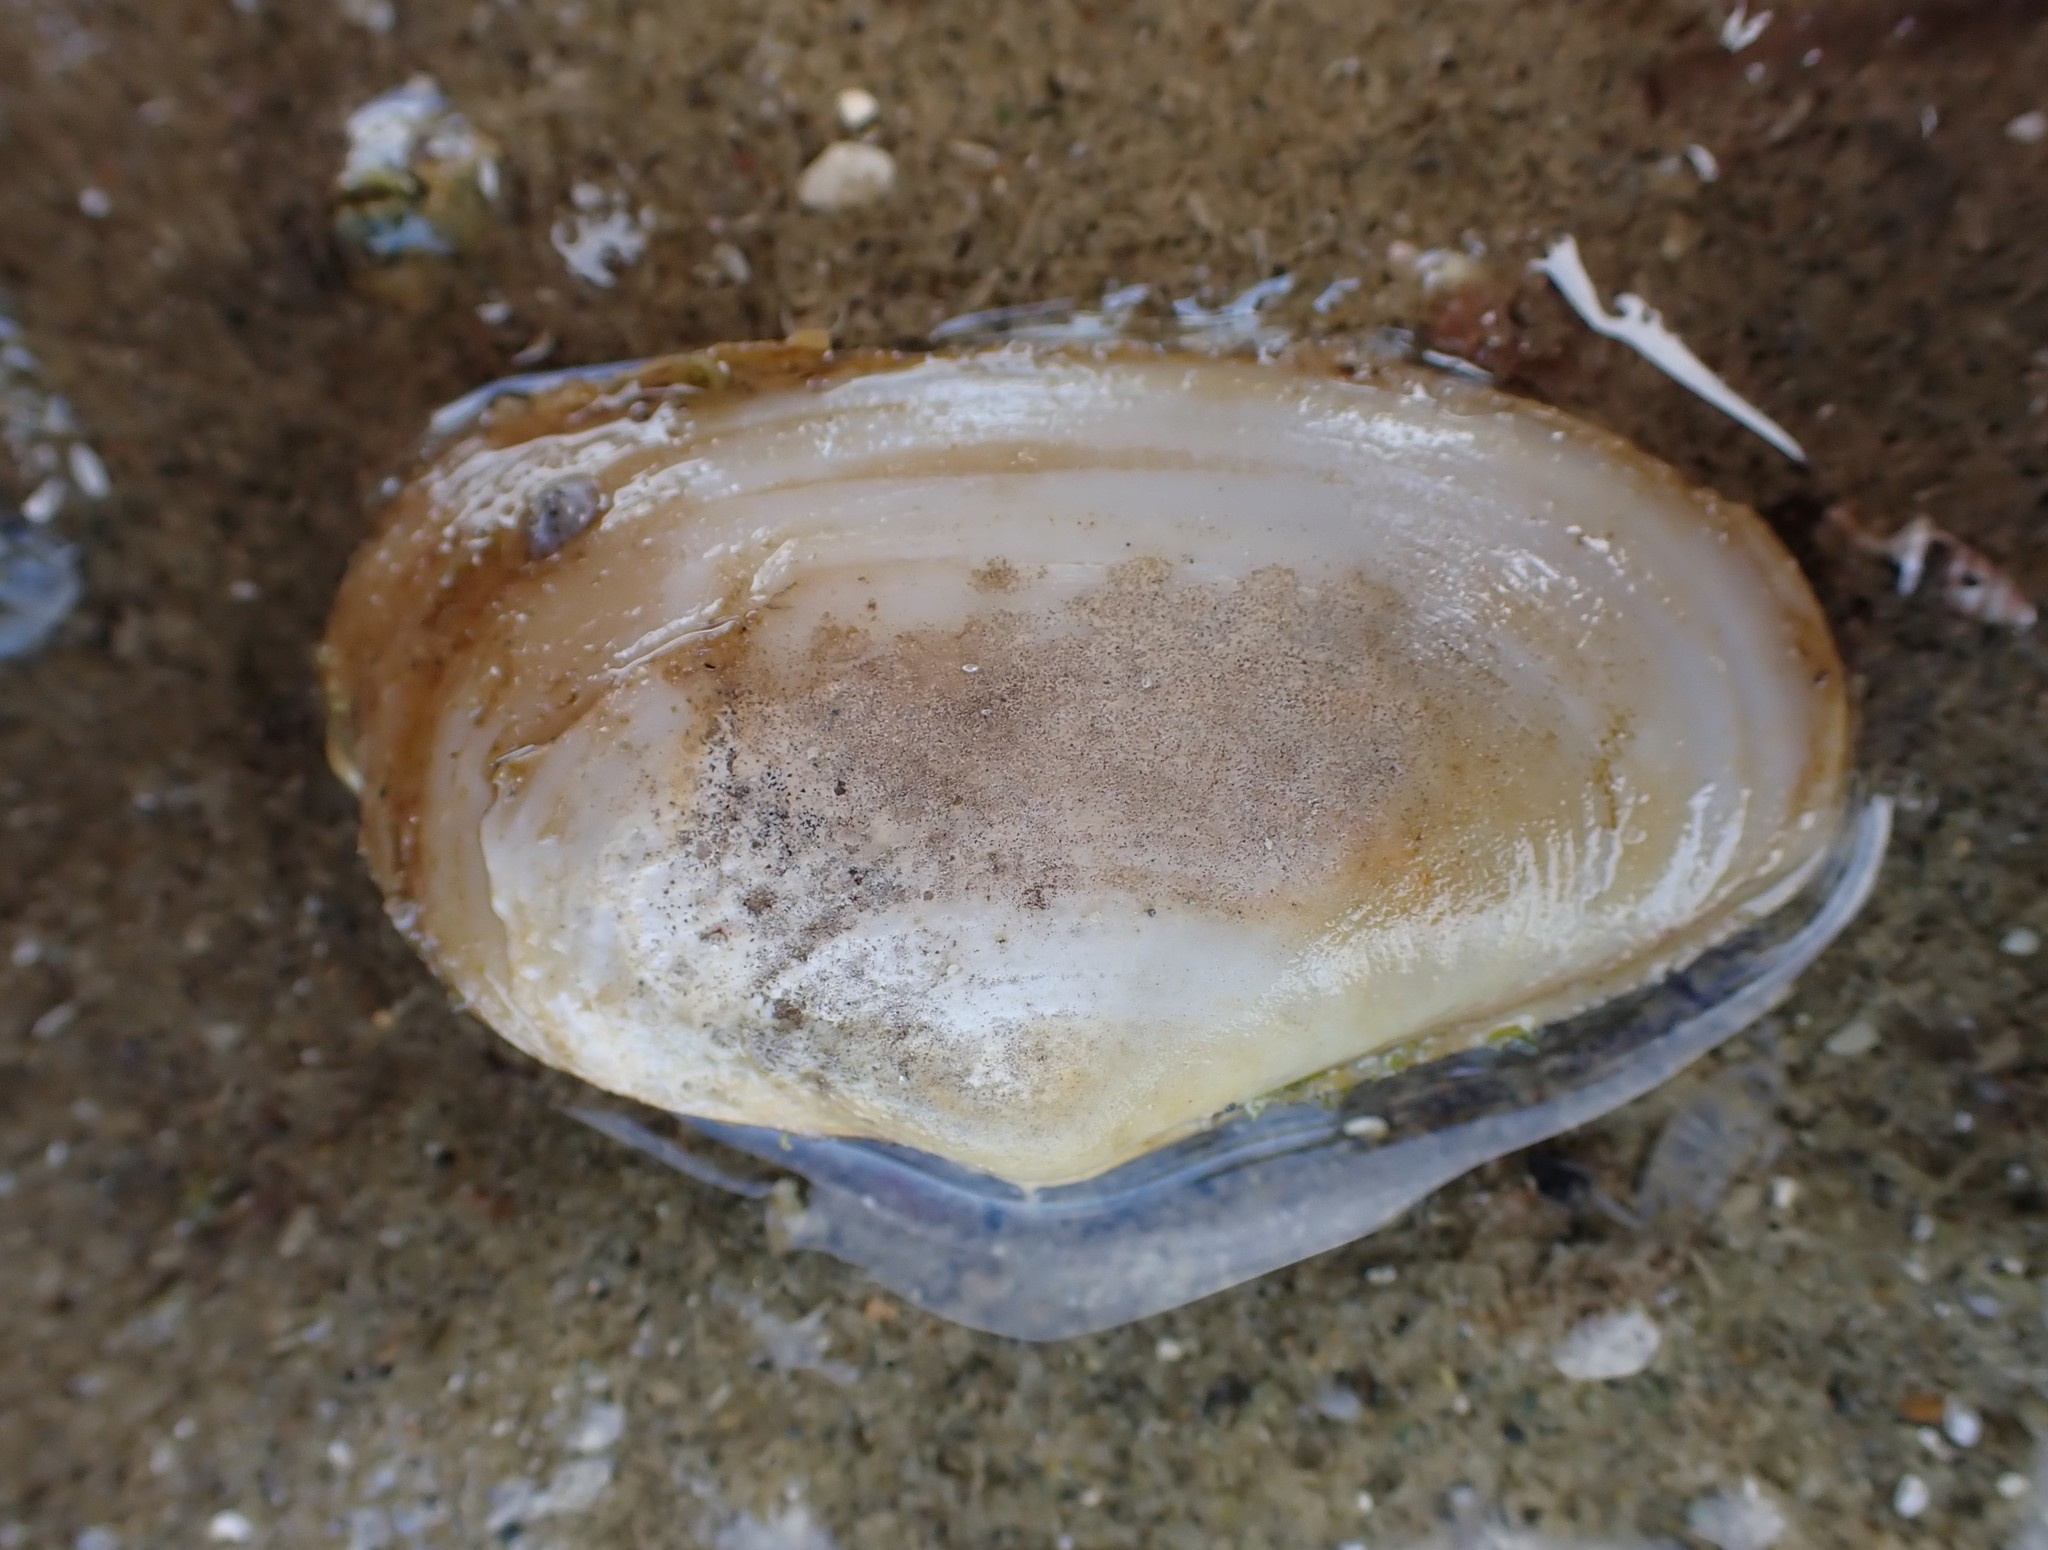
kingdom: Animalia
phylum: Mollusca
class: Bivalvia
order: Venerida
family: Mesodesmatidae
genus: Paphies
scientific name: Paphies australis
